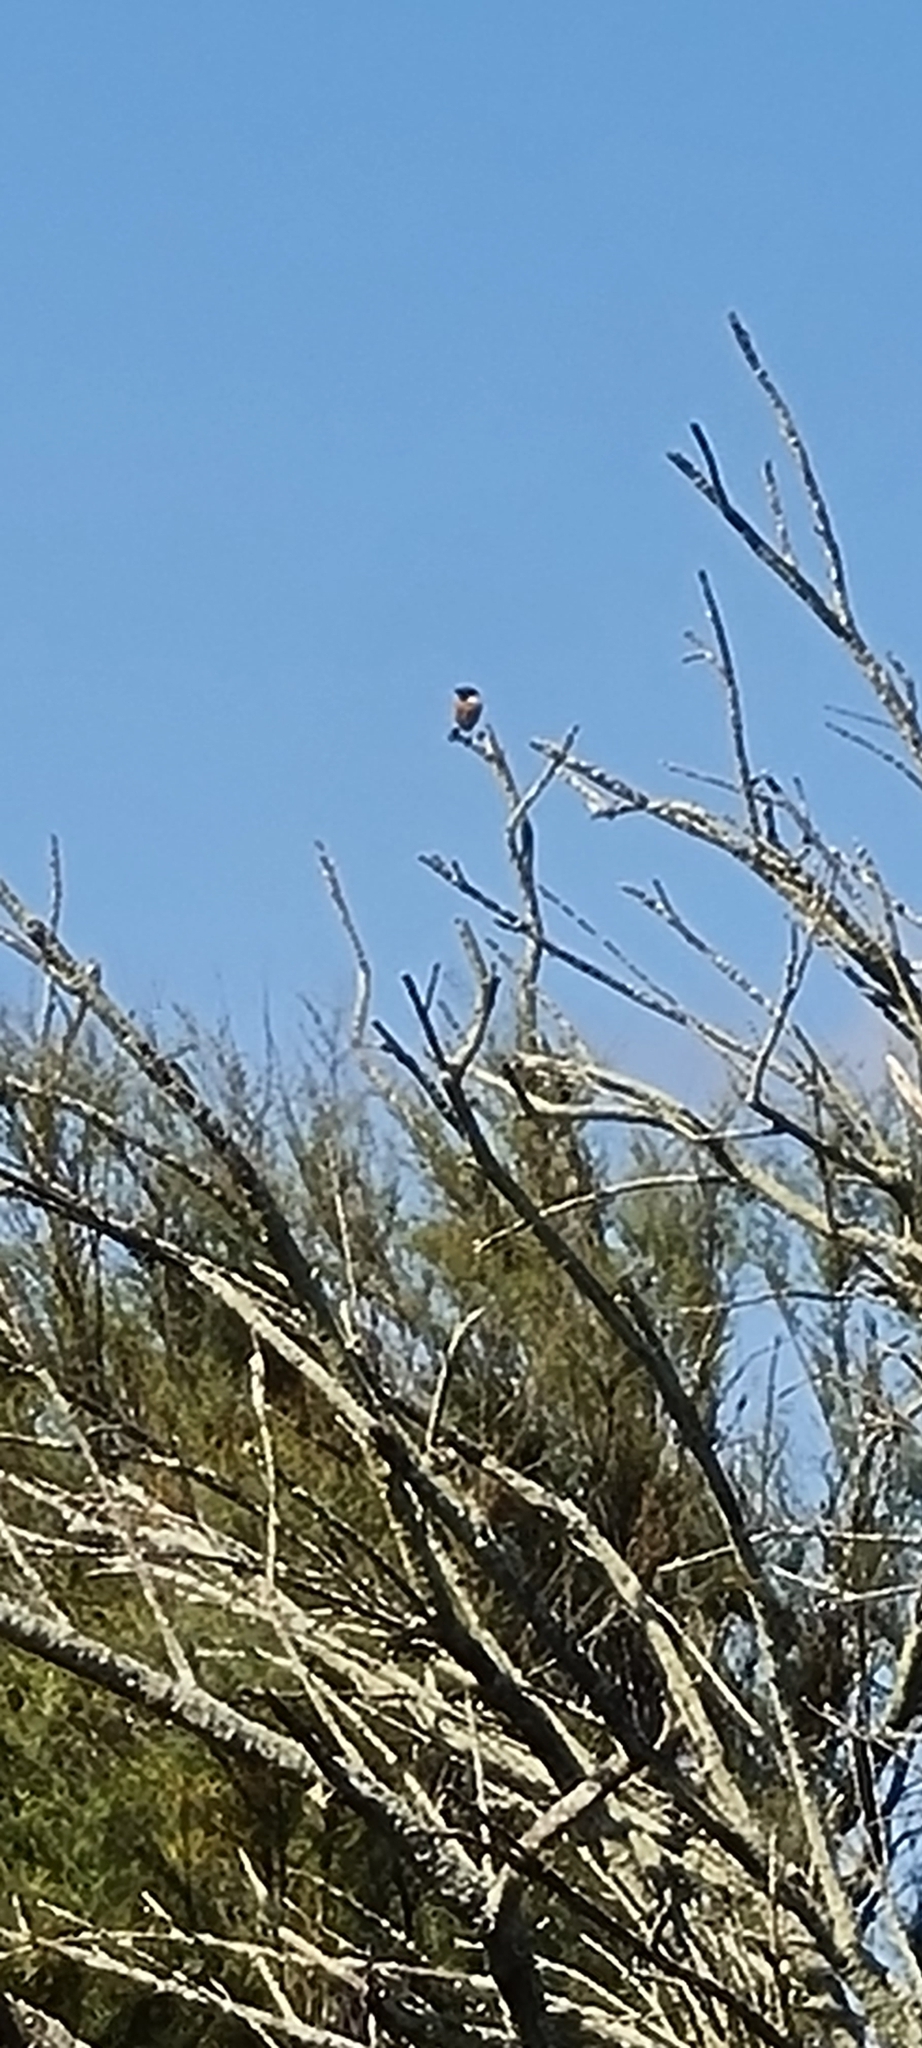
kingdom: Animalia
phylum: Chordata
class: Aves
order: Passeriformes
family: Muscicapidae
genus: Saxicola
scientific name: Saxicola rubicola
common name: European stonechat
